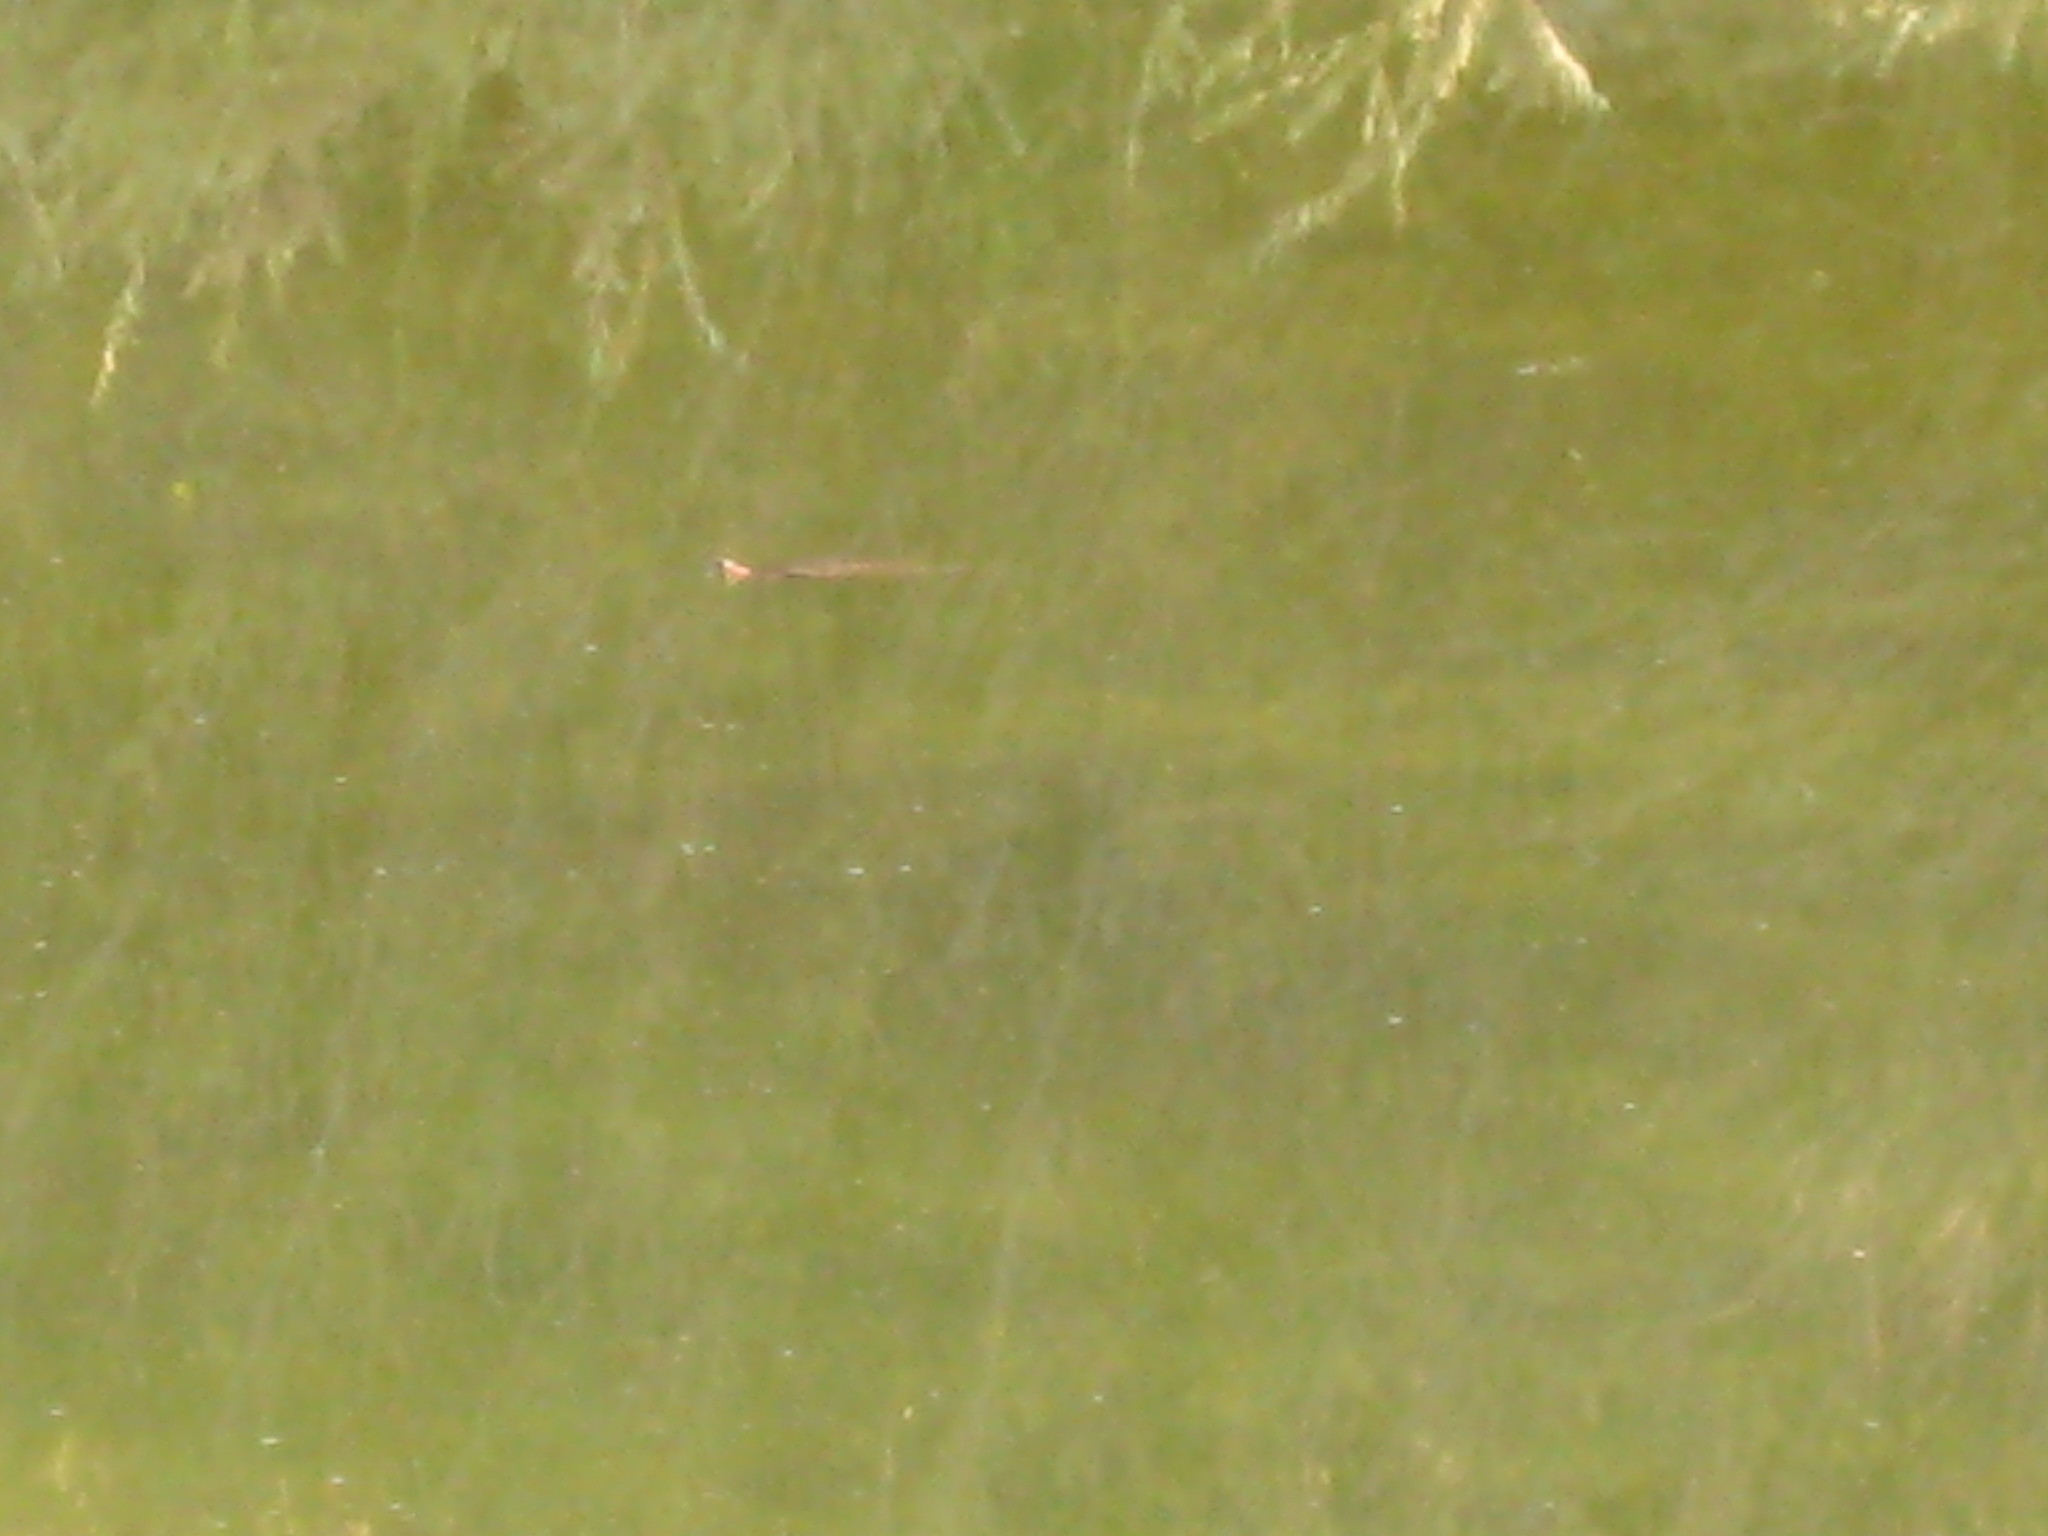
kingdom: Animalia
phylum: Chordata
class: Testudines
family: Emydidae
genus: Trachemys
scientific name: Trachemys scripta
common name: Slider
